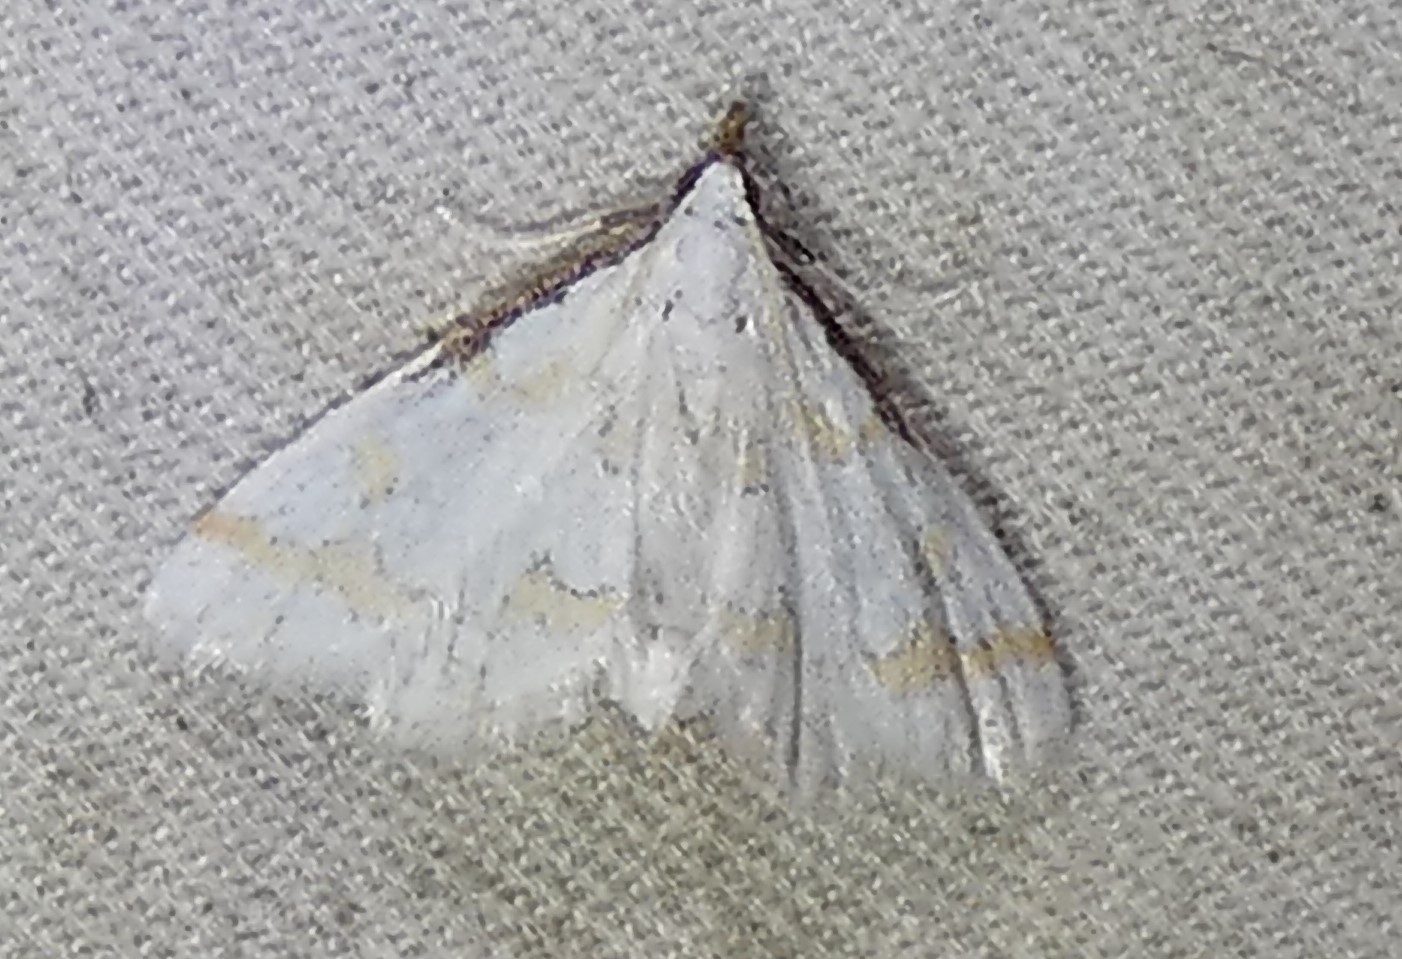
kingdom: Animalia
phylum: Arthropoda
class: Insecta
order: Lepidoptera
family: Crambidae
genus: Leptosteges
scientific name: Leptosteges
